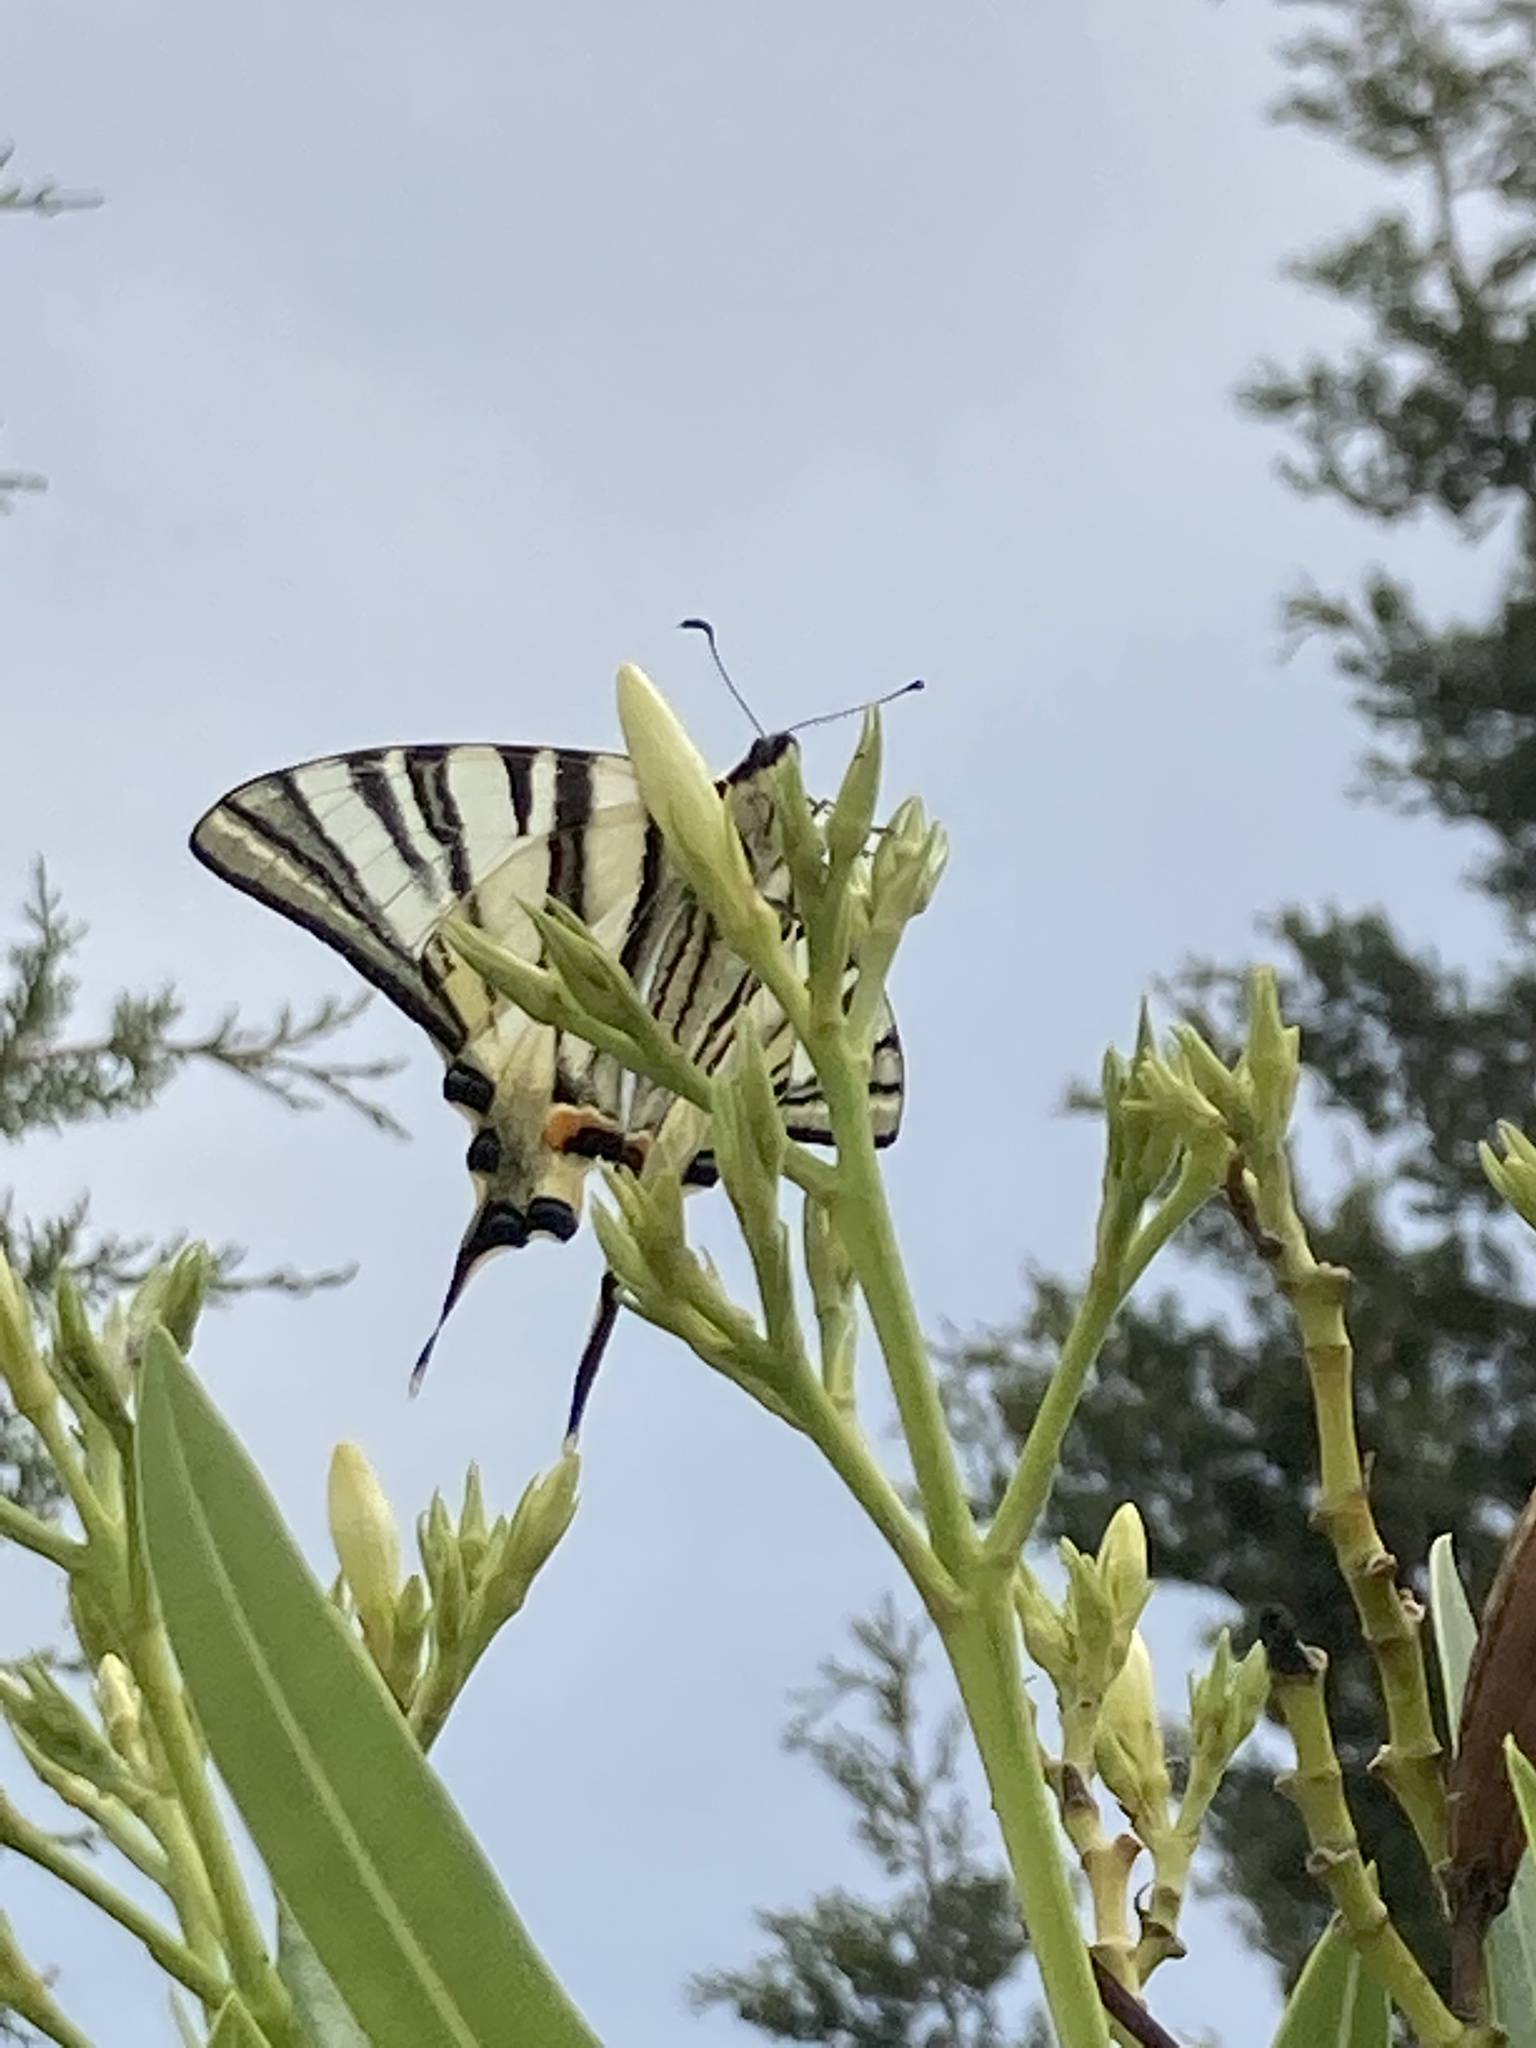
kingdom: Animalia
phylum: Arthropoda
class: Insecta
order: Lepidoptera
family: Papilionidae
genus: Iphiclides
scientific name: Iphiclides podalirius
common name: Scarce swallowtail
